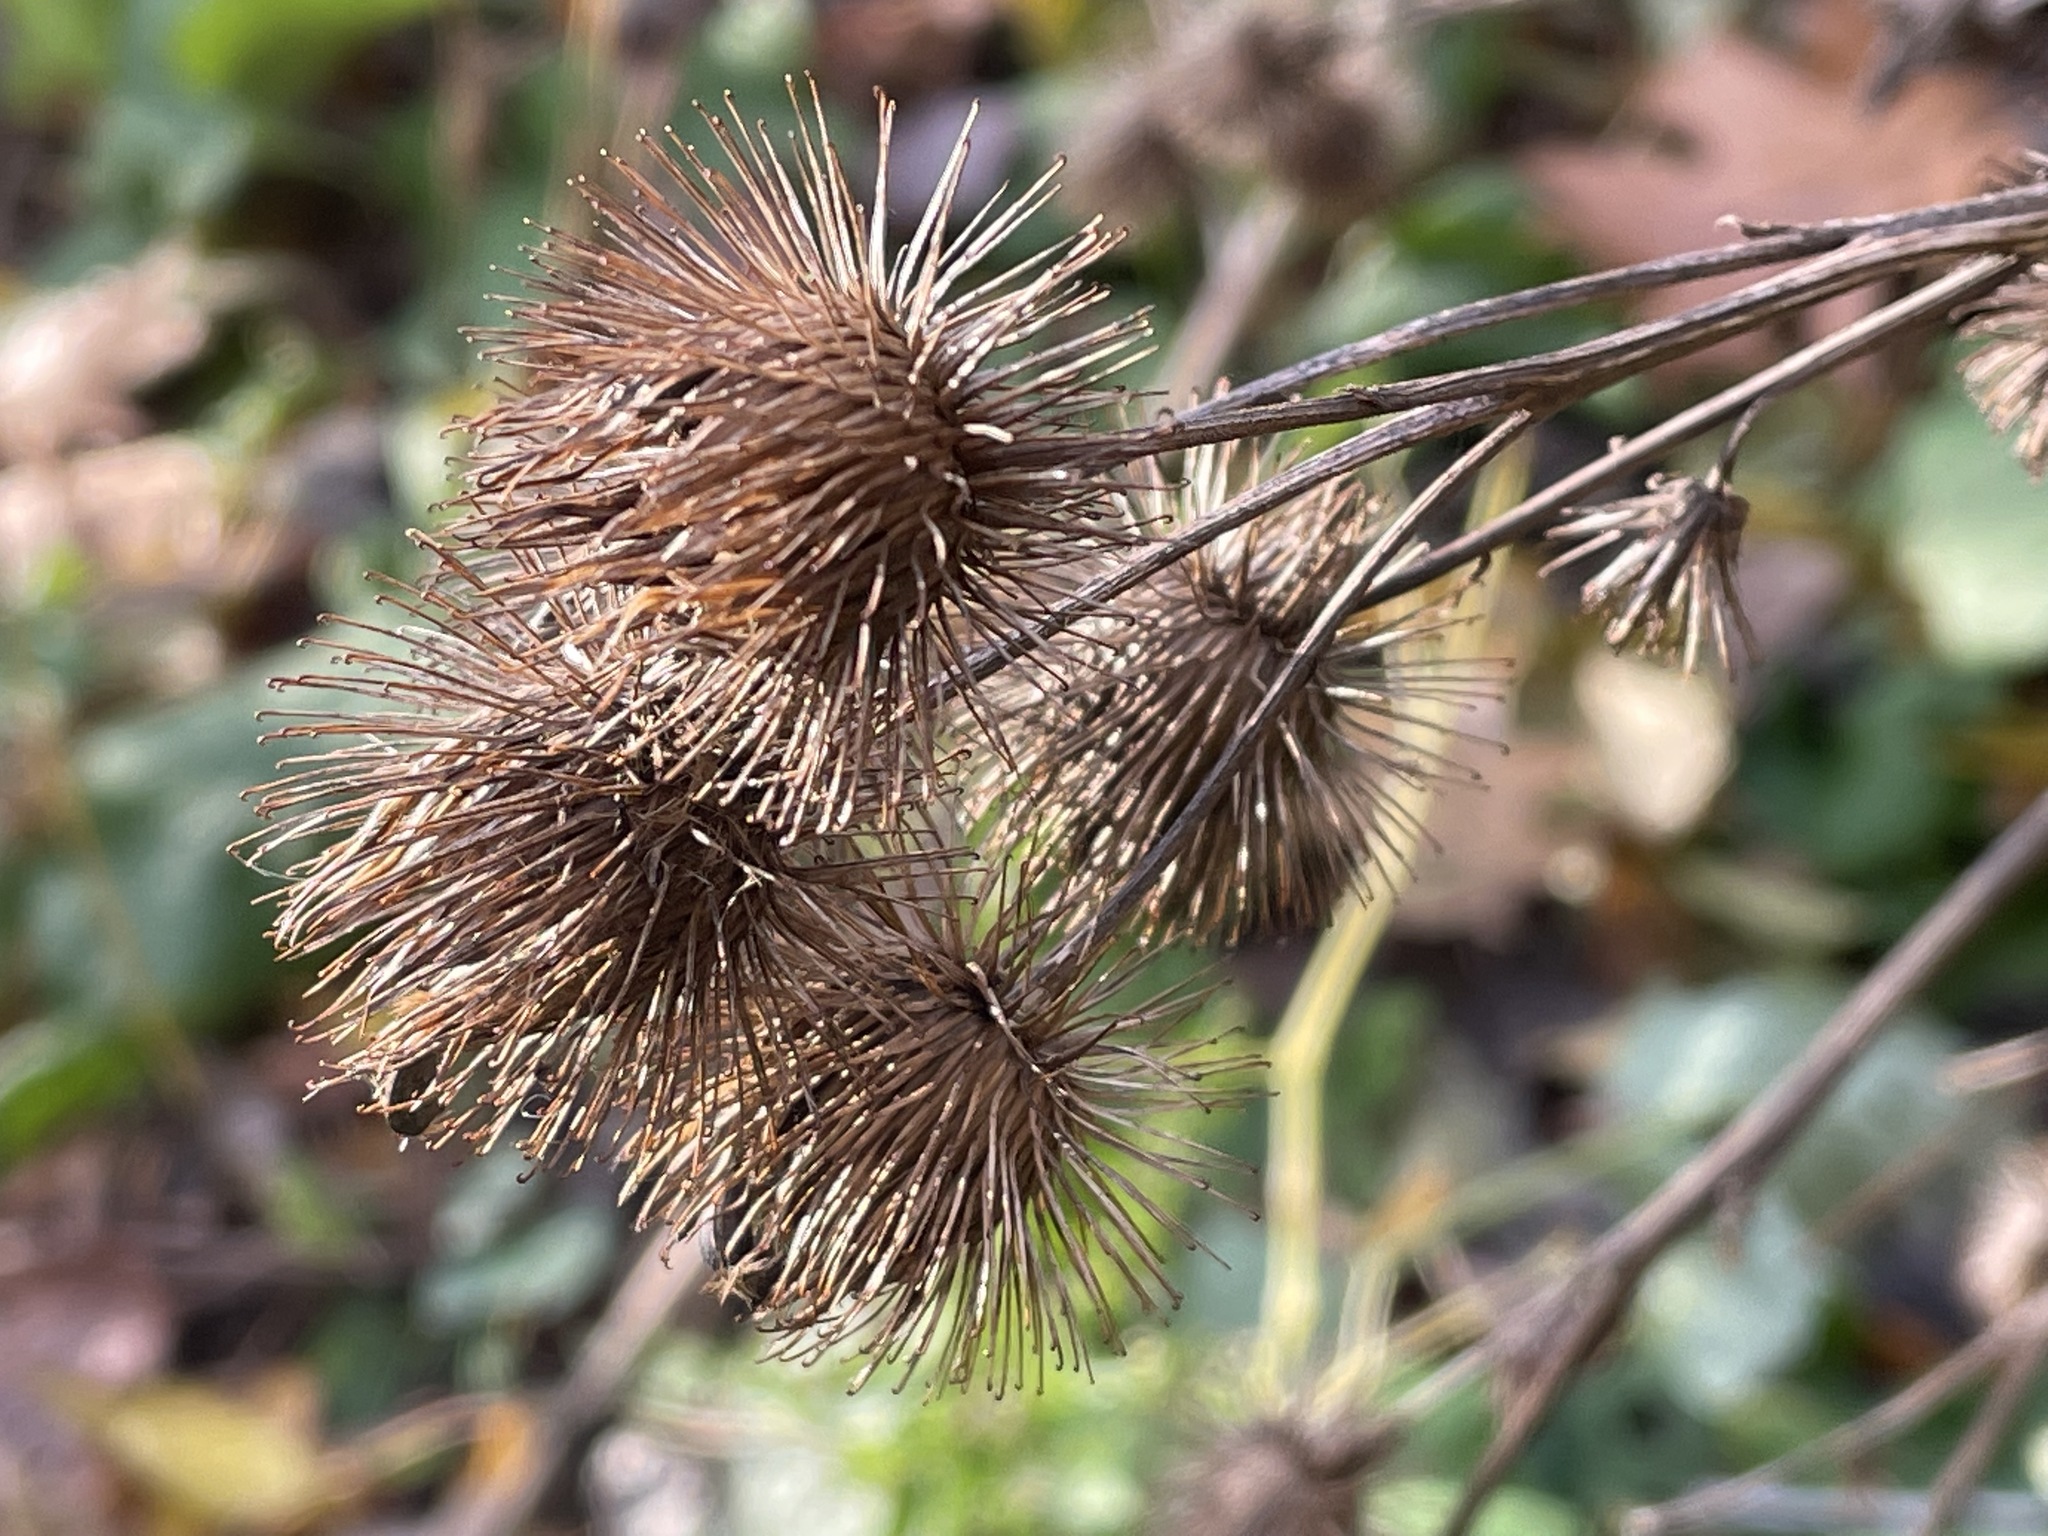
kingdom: Plantae
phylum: Tracheophyta
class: Magnoliopsida
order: Asterales
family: Asteraceae
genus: Arctium
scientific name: Arctium lappa
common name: Greater burdock
